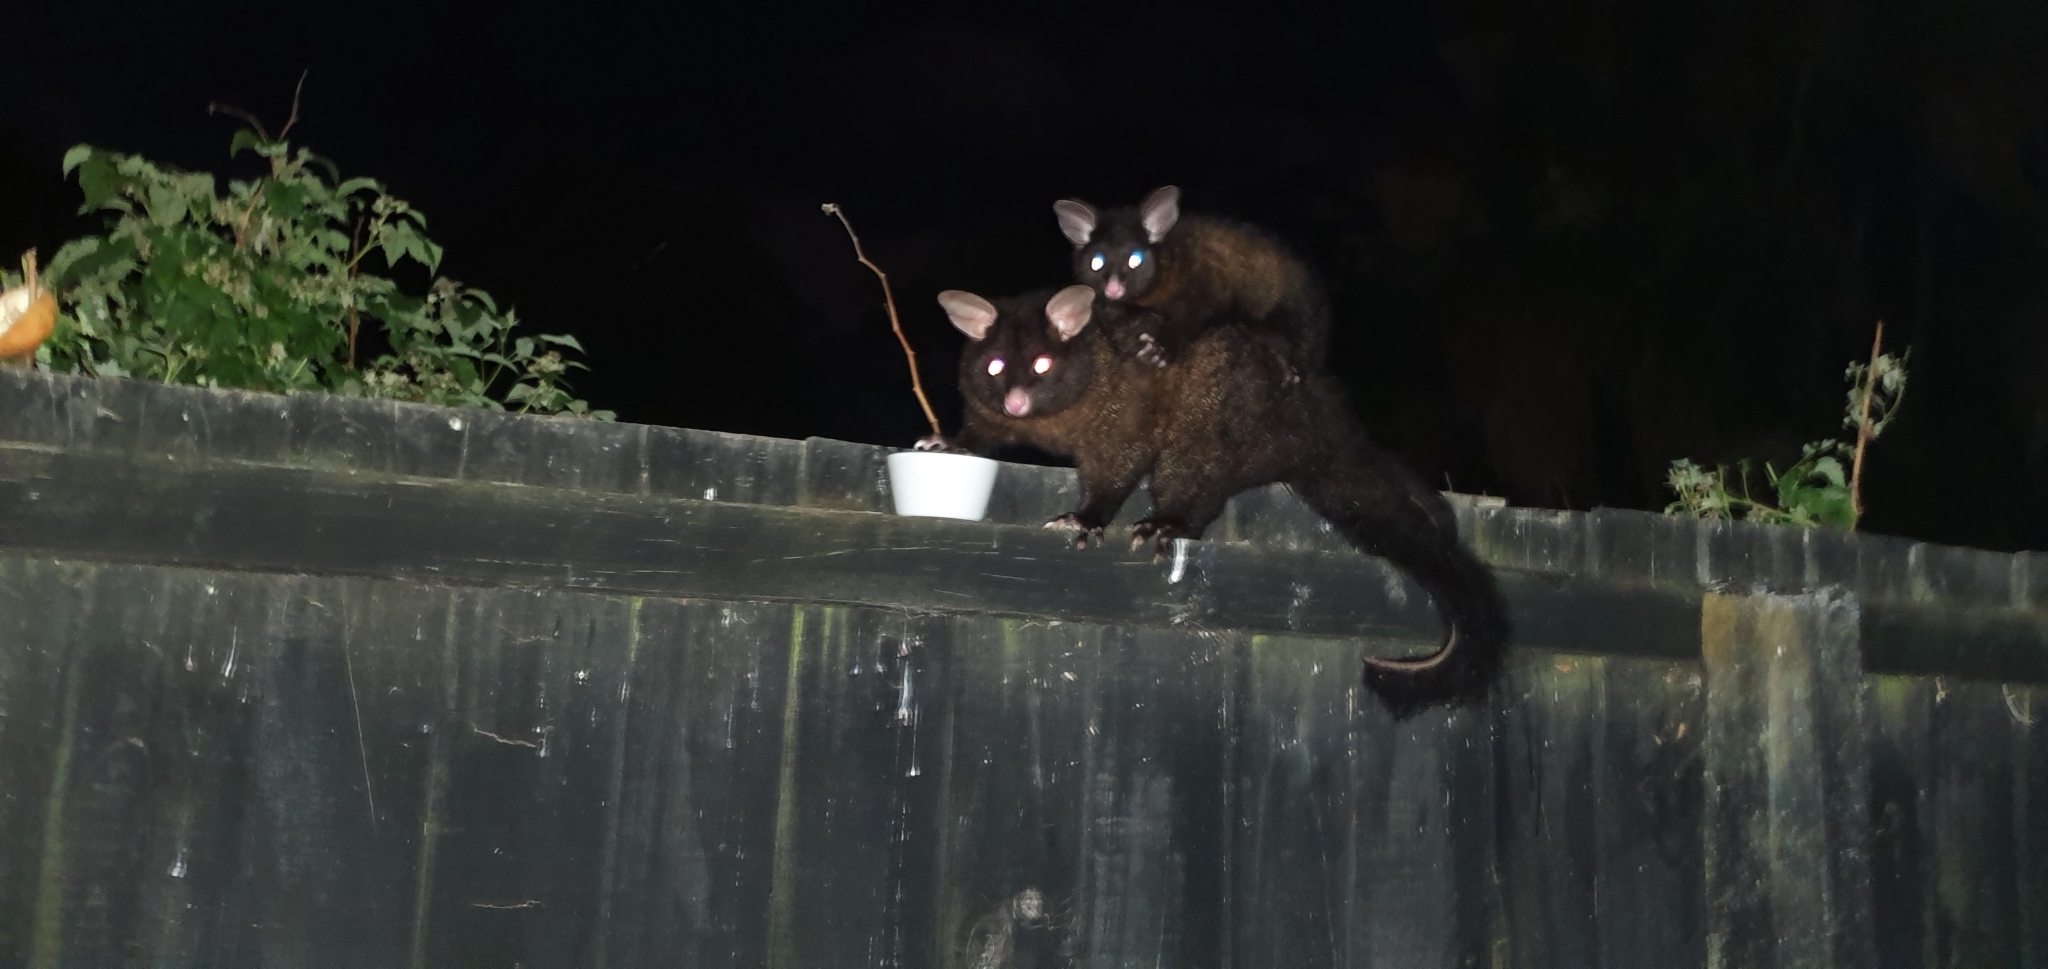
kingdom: Animalia
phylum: Chordata
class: Mammalia
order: Diprotodontia
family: Phalangeridae
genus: Trichosurus
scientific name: Trichosurus vulpecula
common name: Common brushtail
